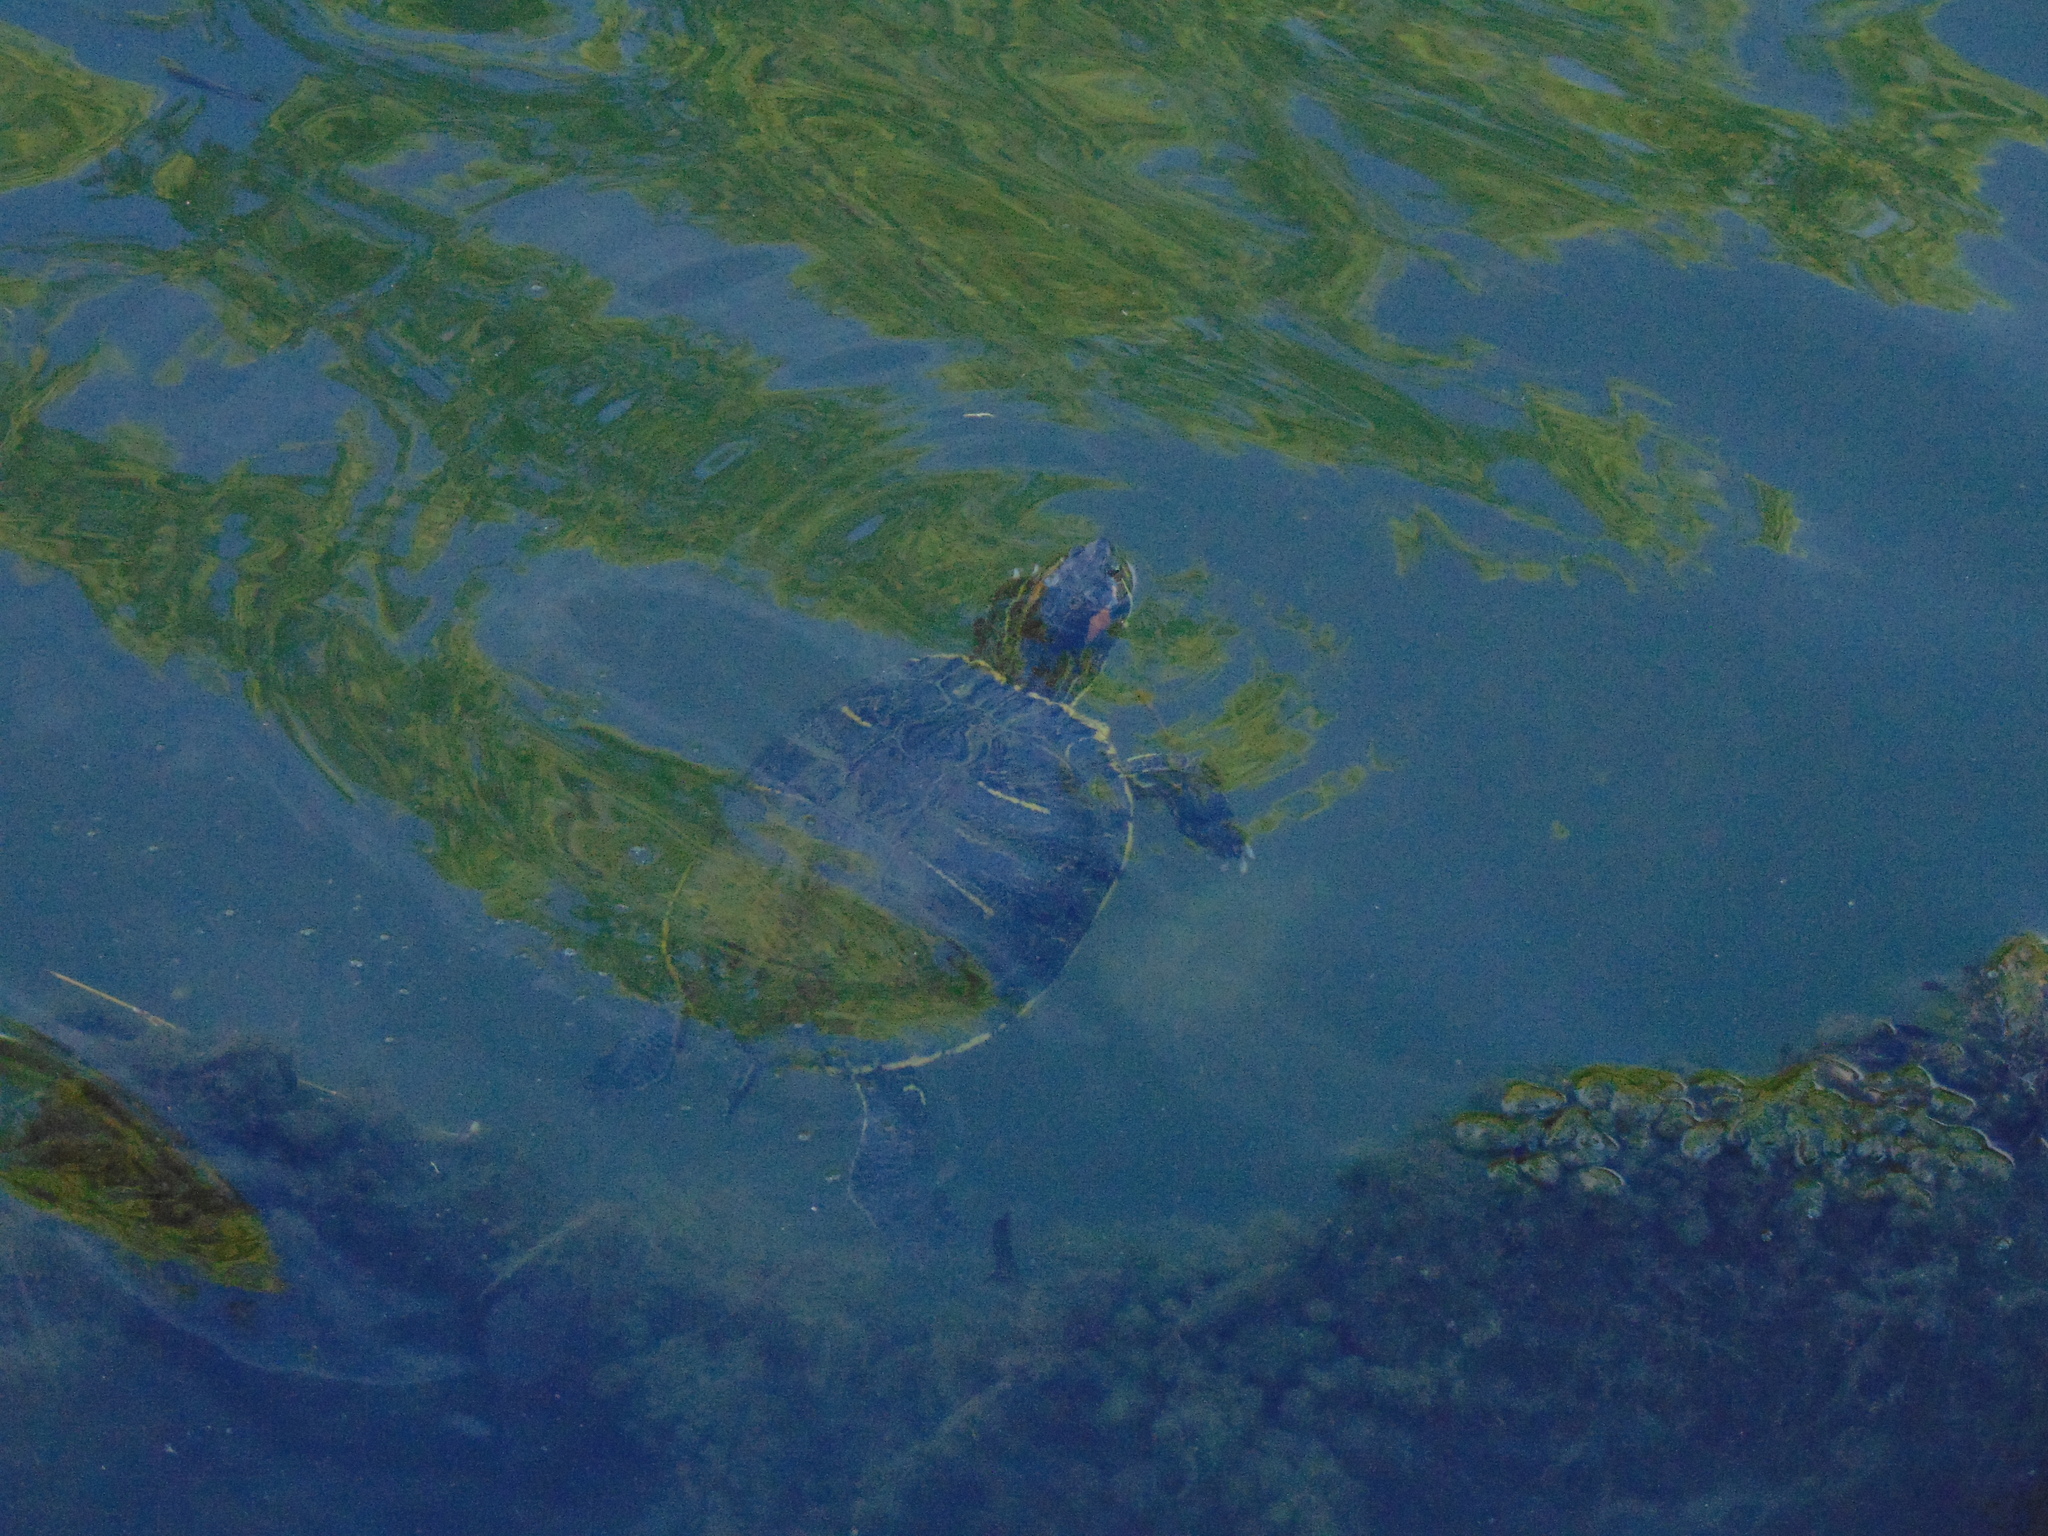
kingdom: Animalia
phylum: Chordata
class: Testudines
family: Emydidae
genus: Trachemys
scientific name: Trachemys scripta
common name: Slider
